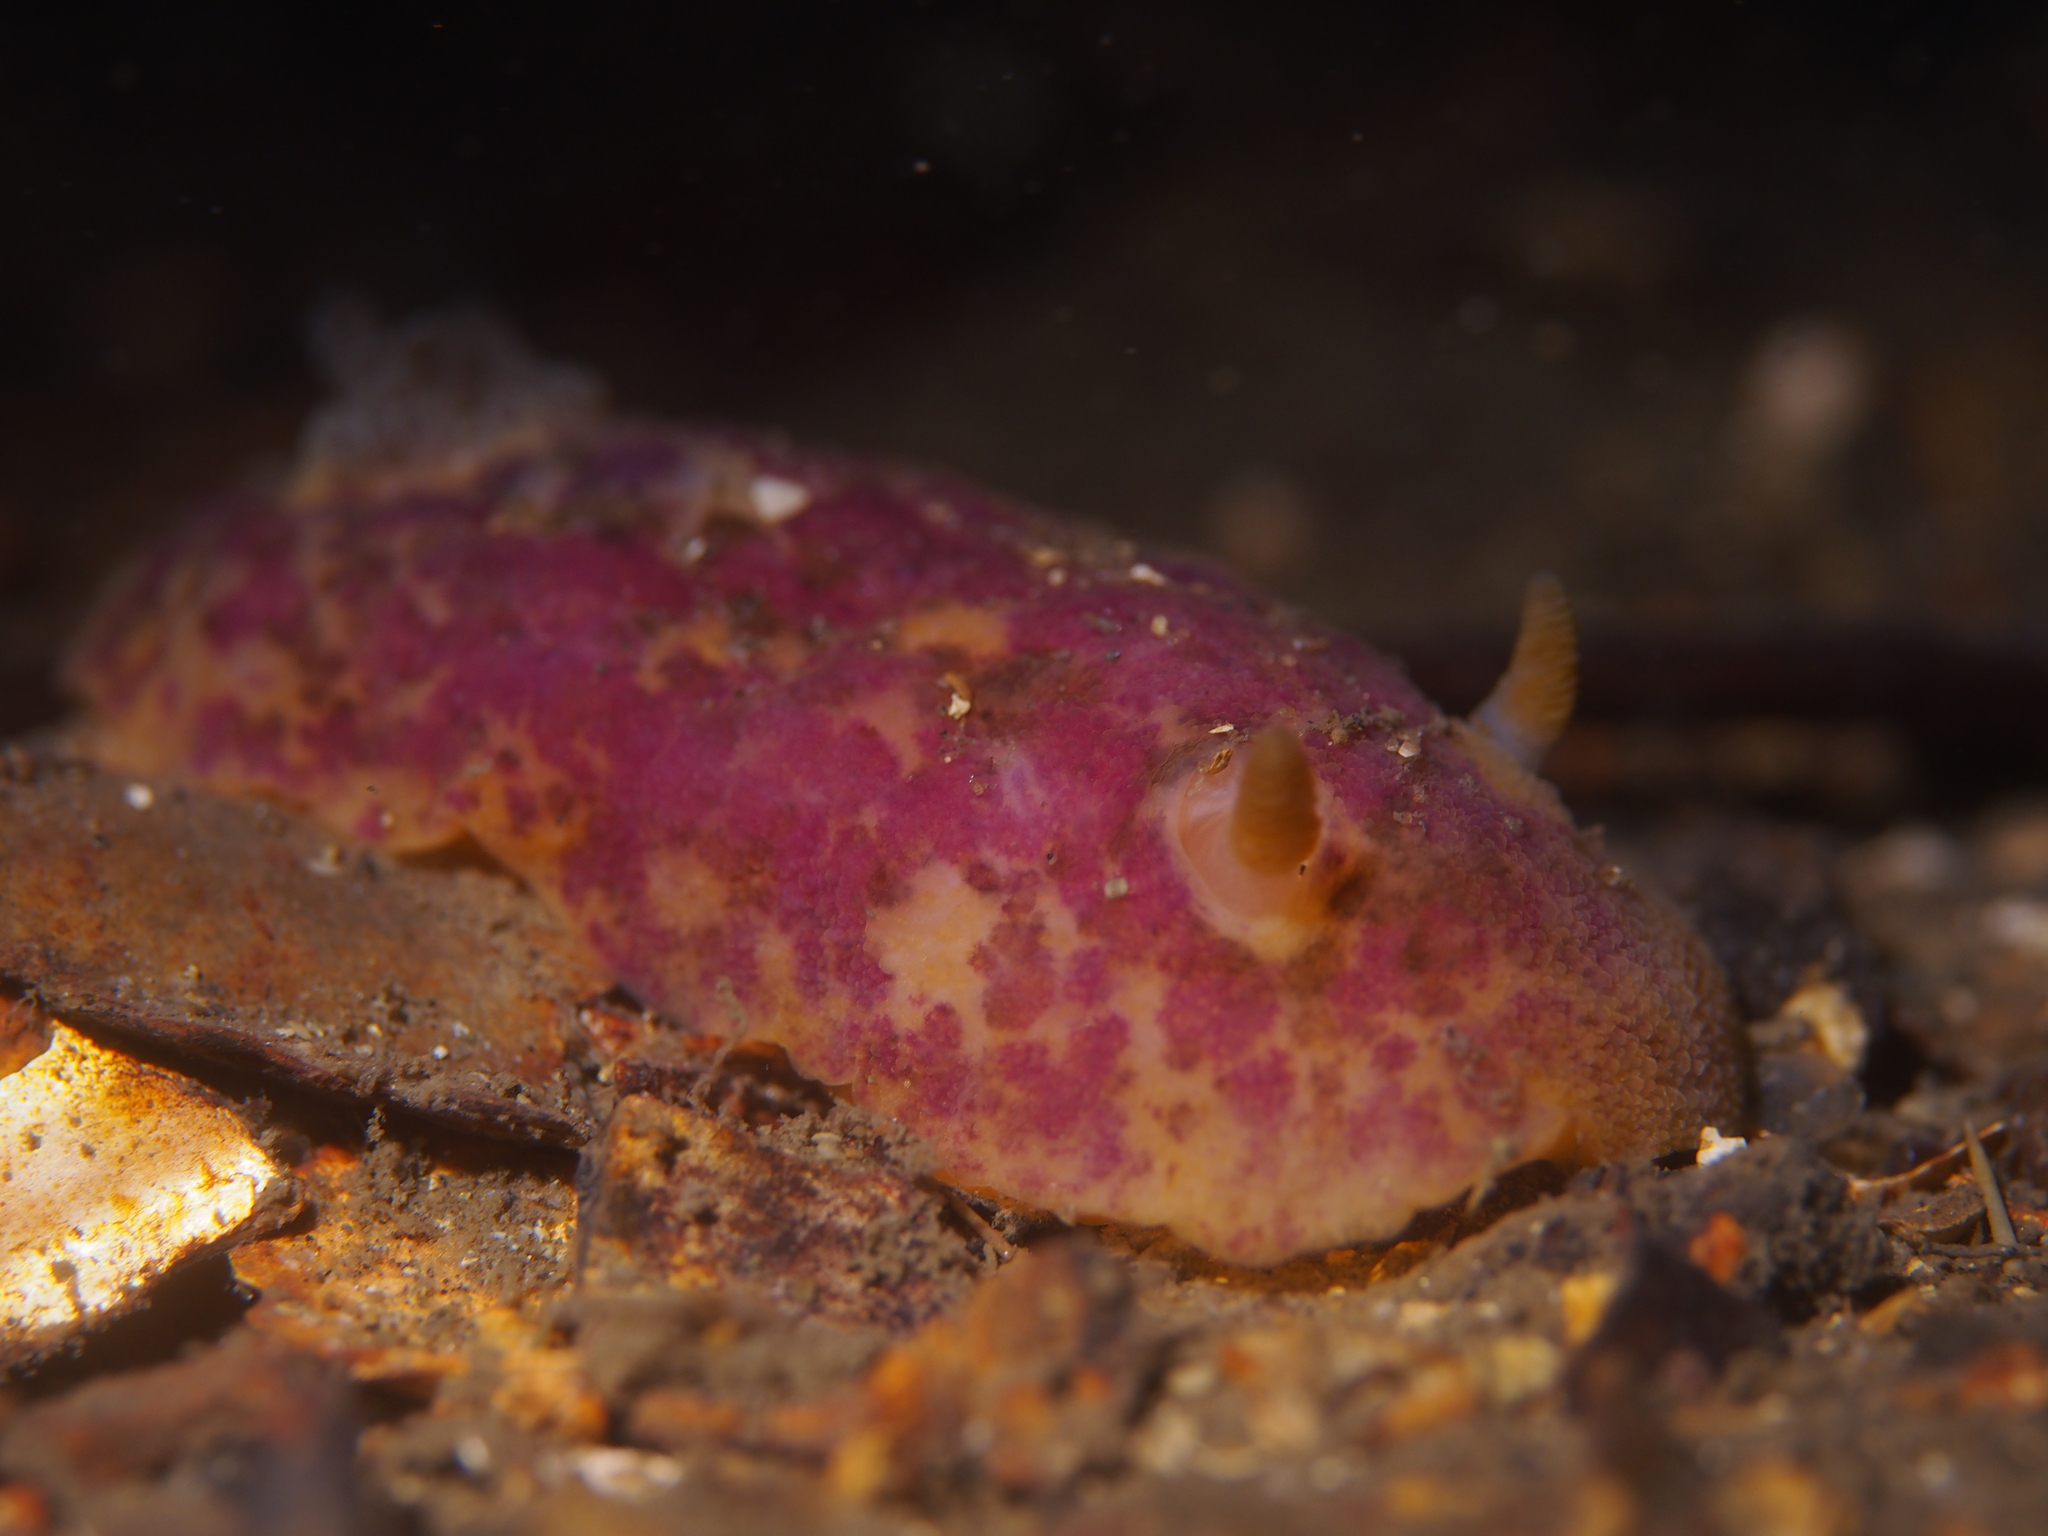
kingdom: Animalia
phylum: Mollusca
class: Gastropoda
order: Nudibranchia
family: Dorididae
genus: Doris
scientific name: Doris pseudoargus
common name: Sea lemon
